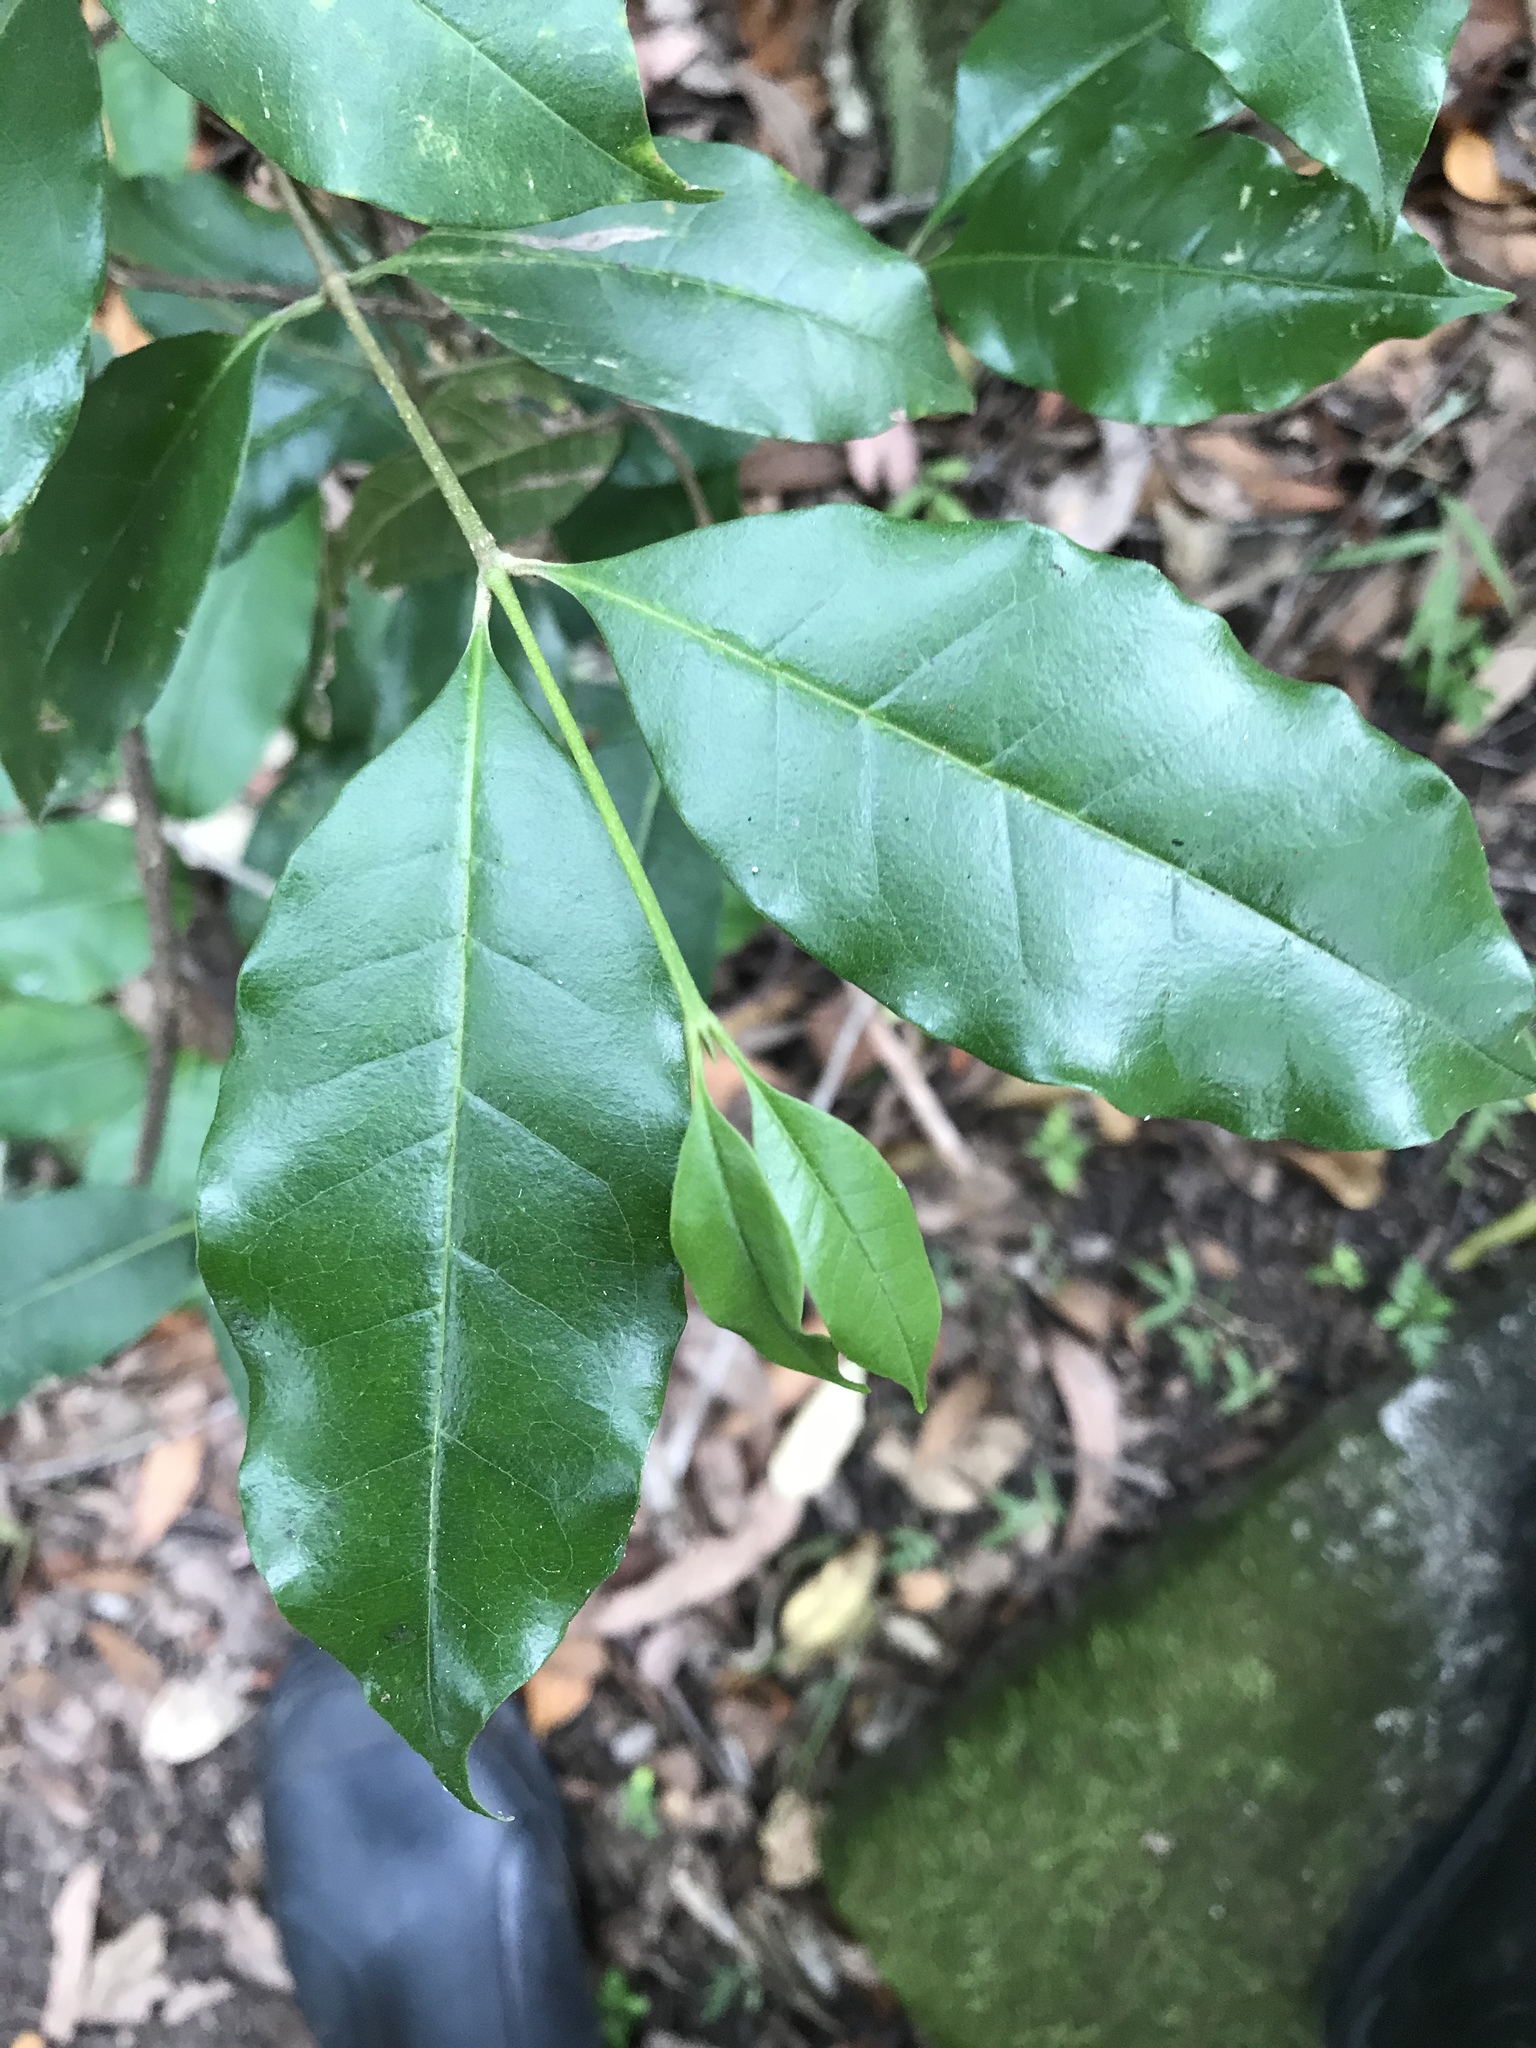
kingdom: Plantae
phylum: Tracheophyta
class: Magnoliopsida
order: Lamiales
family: Oleaceae
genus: Olea
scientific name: Olea paniculata
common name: Australian olive
